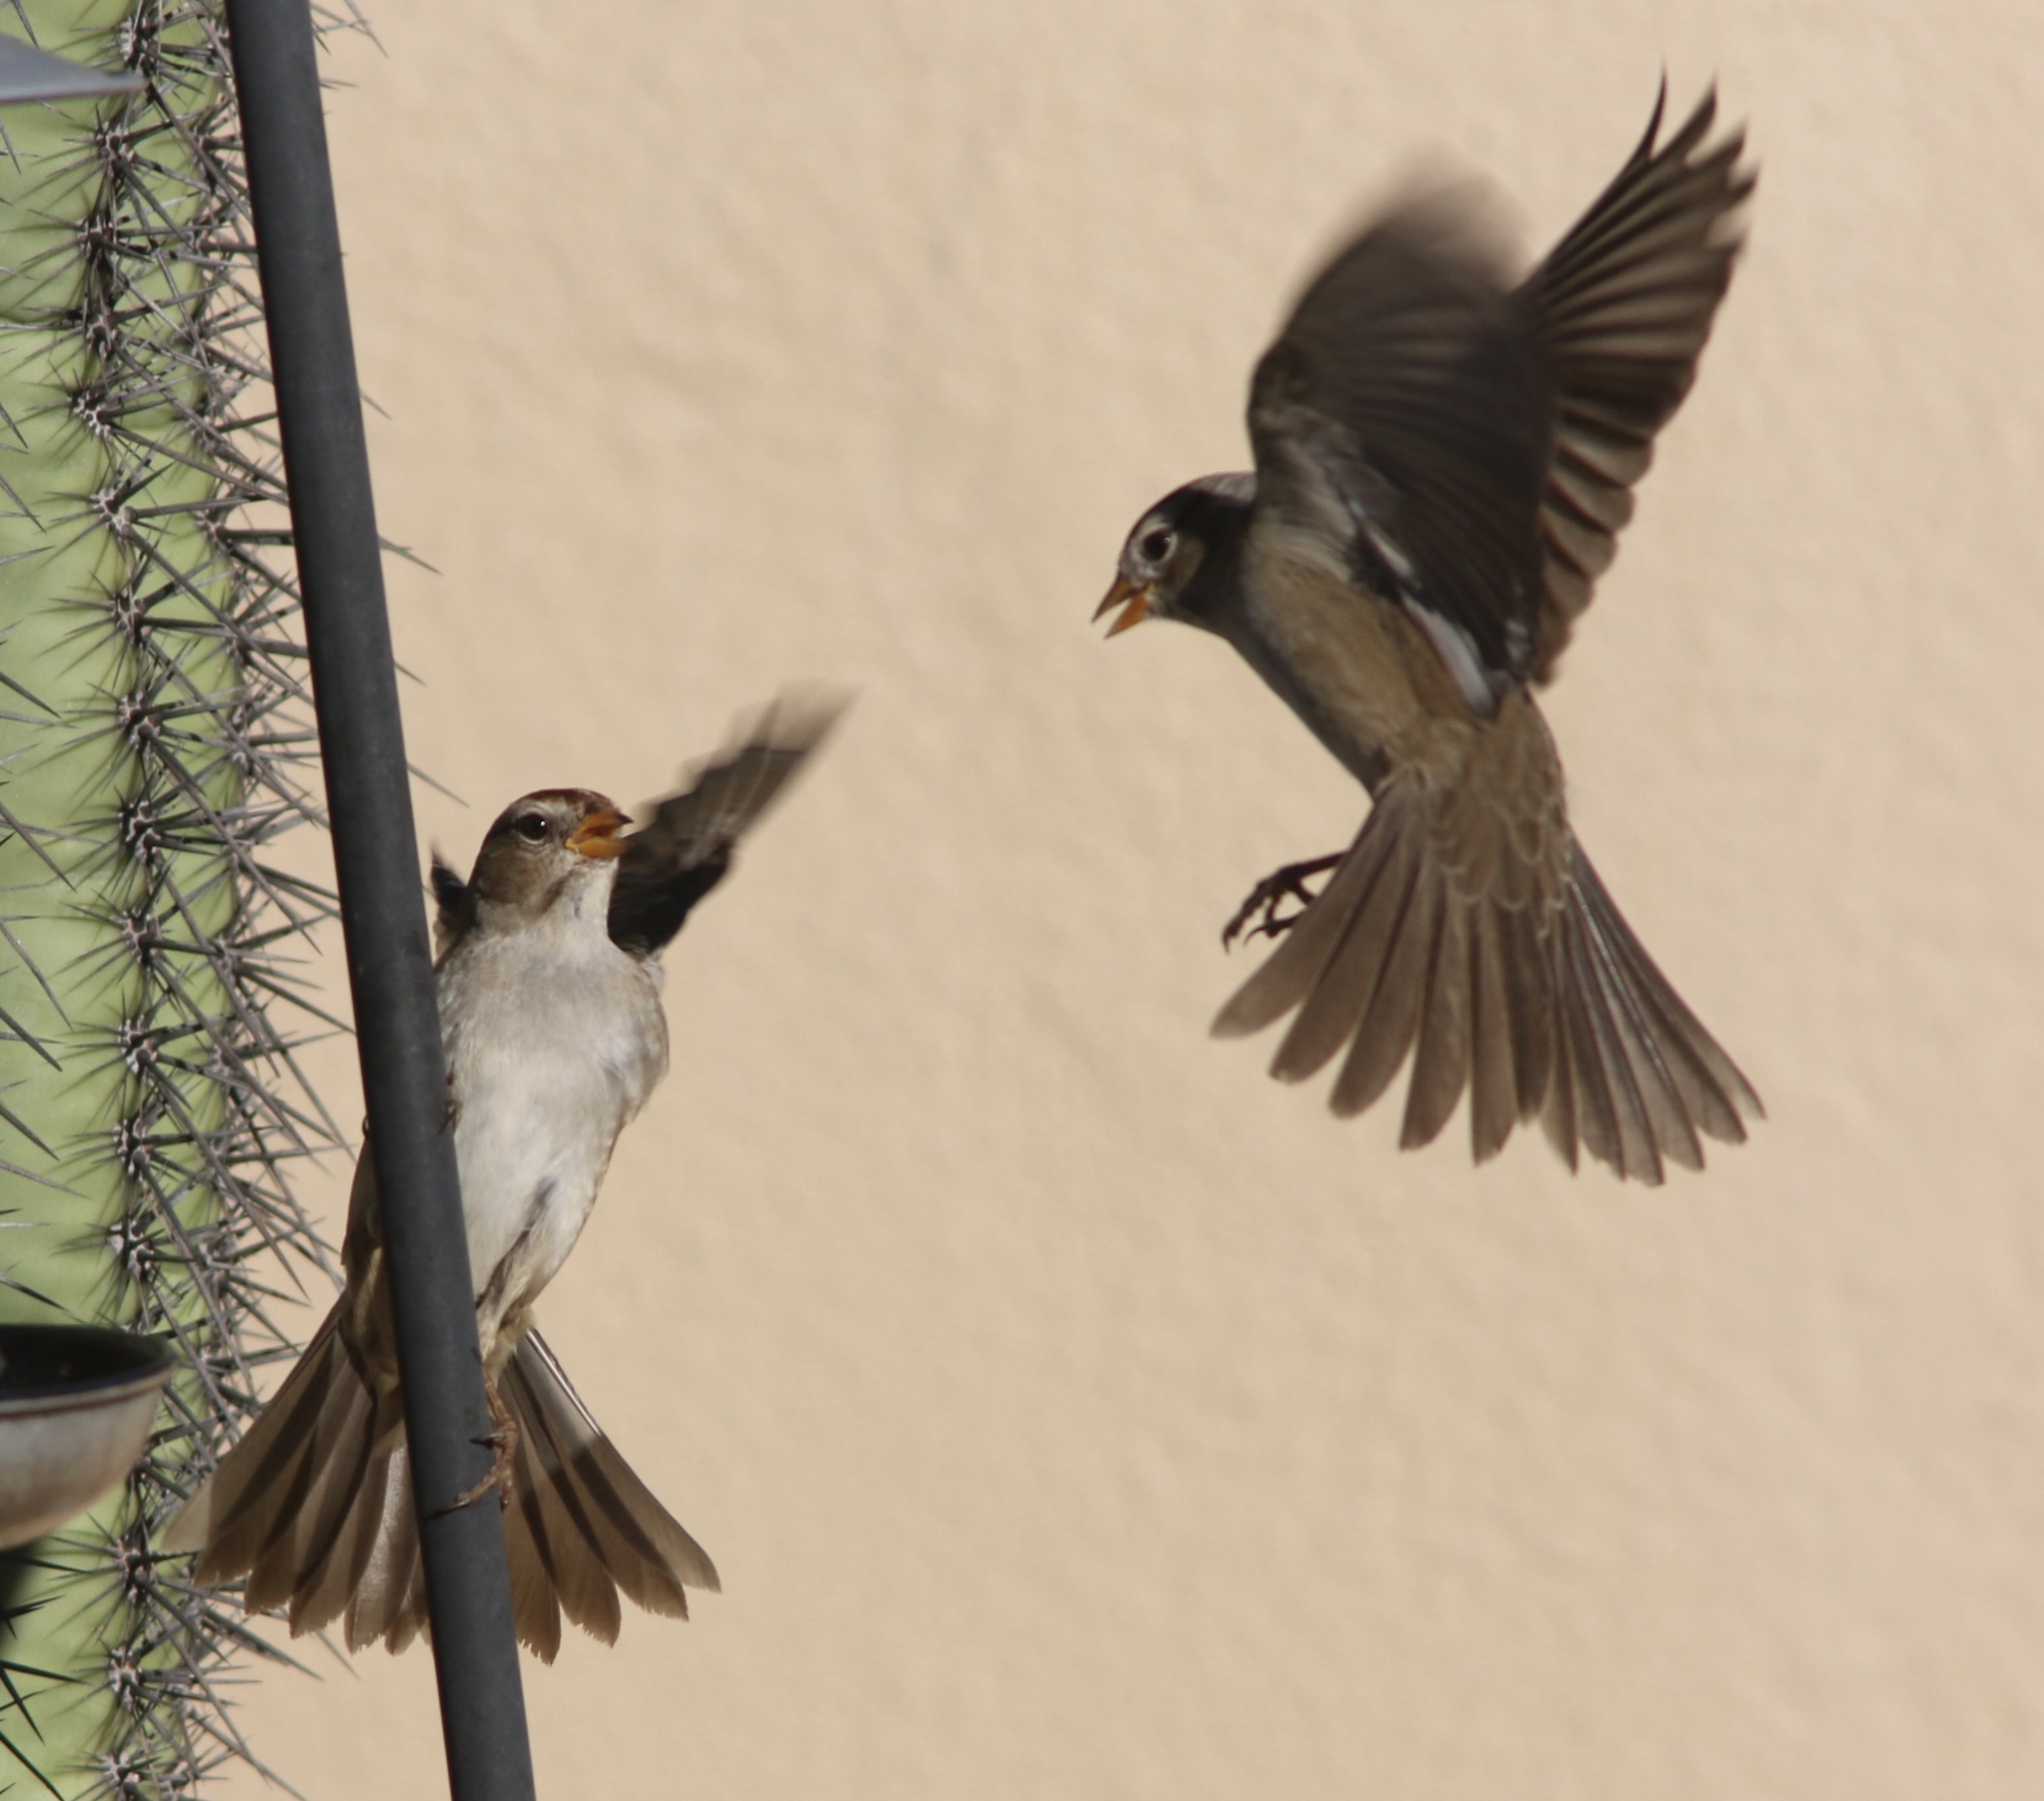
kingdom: Animalia
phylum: Chordata
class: Aves
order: Passeriformes
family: Passerellidae
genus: Zonotrichia
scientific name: Zonotrichia leucophrys
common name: White-crowned sparrow
